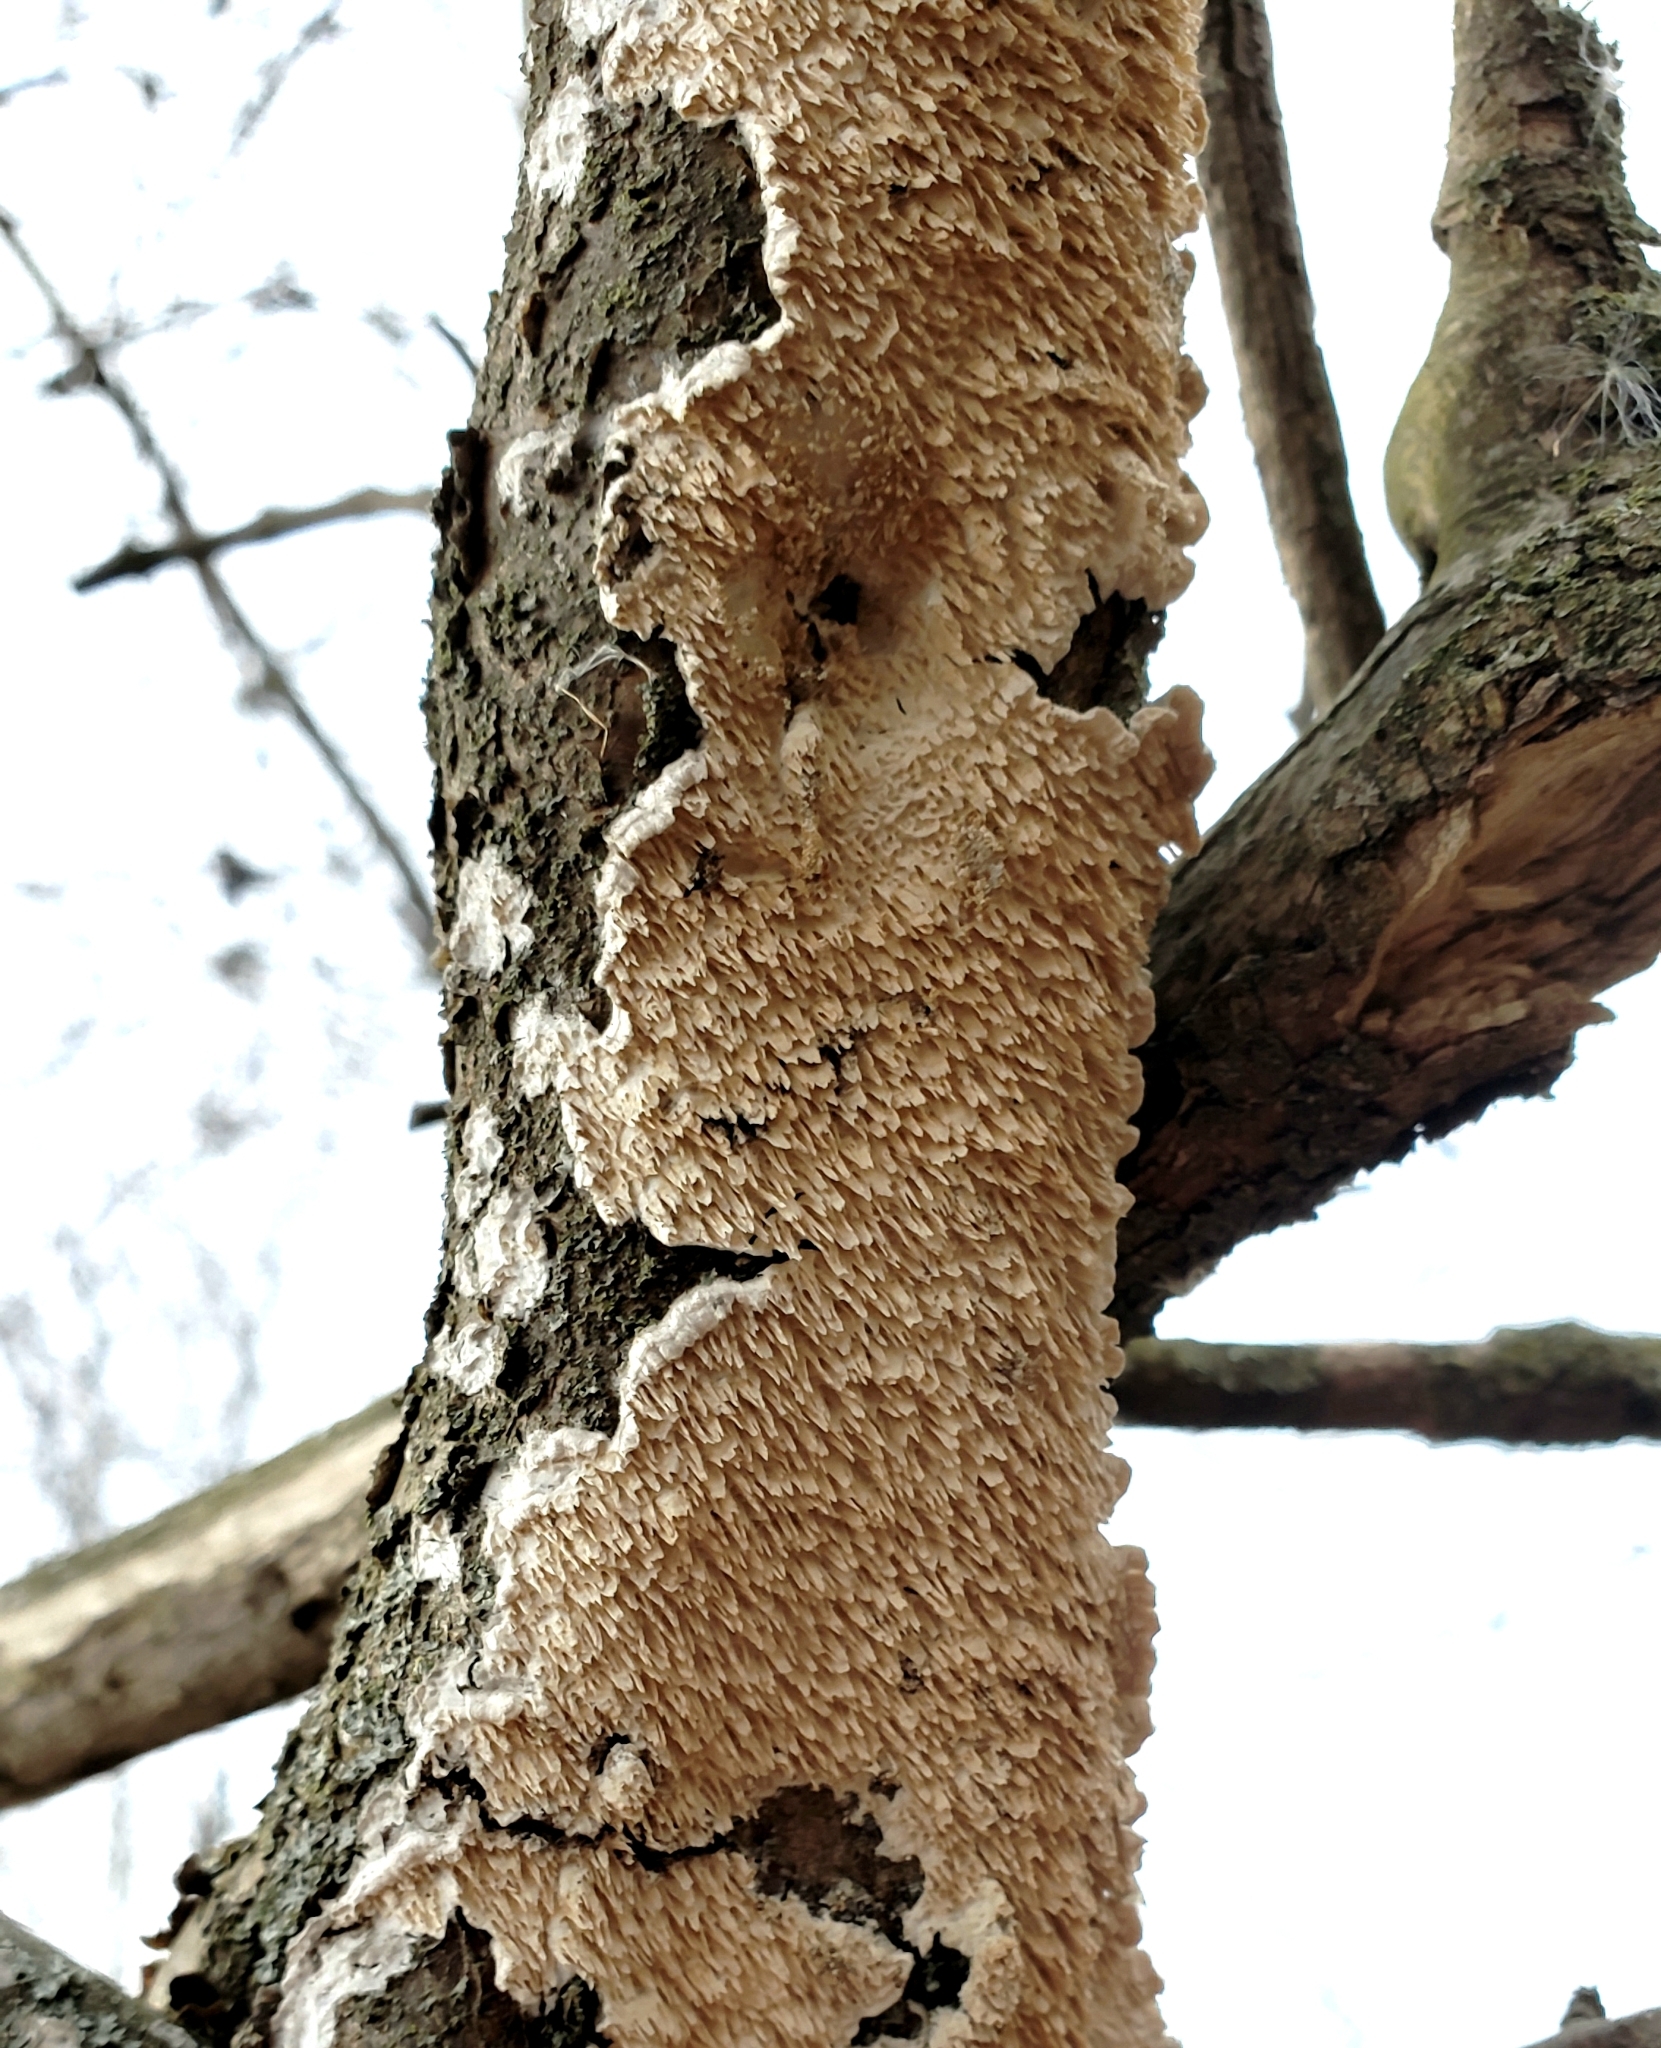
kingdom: Fungi
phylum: Basidiomycota
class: Agaricomycetes
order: Polyporales
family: Irpicaceae
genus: Irpex
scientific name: Irpex lacteus
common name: Milk-white toothed polypore
